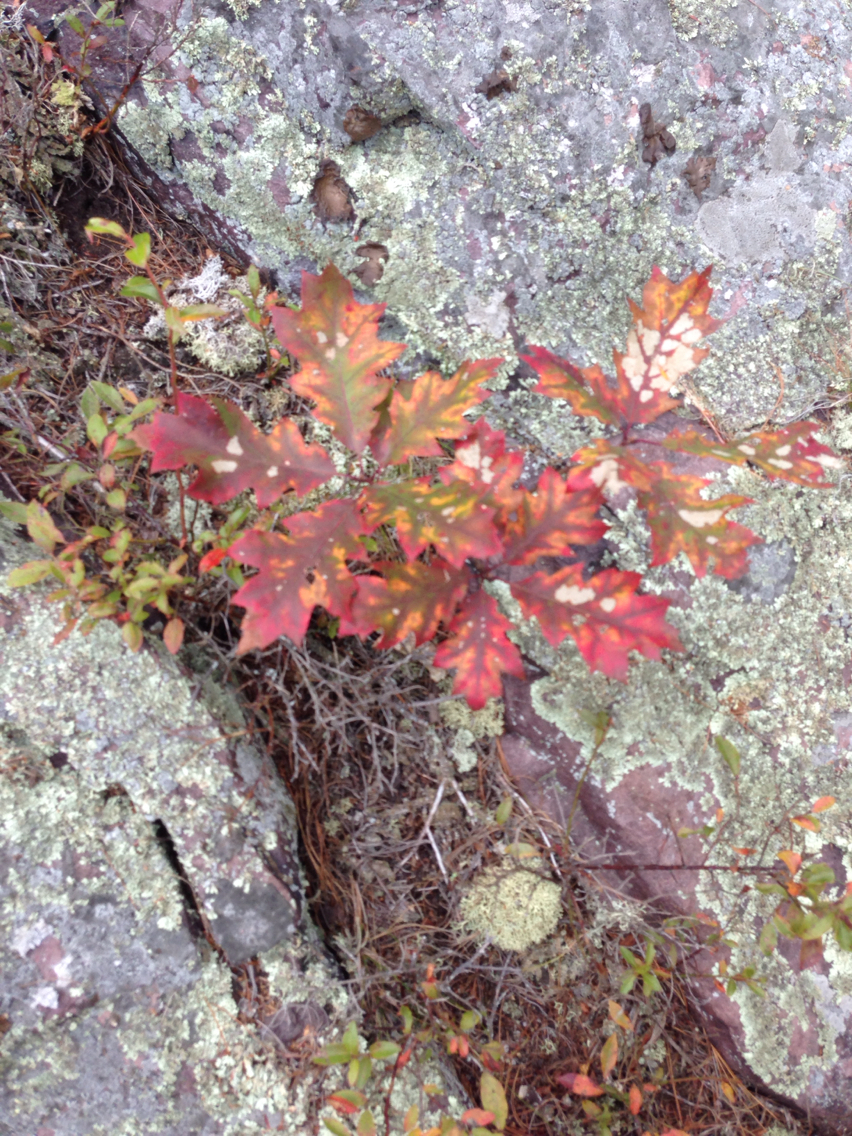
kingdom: Plantae
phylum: Tracheophyta
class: Magnoliopsida
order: Fagales
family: Fagaceae
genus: Quercus
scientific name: Quercus rubra
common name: Red oak
